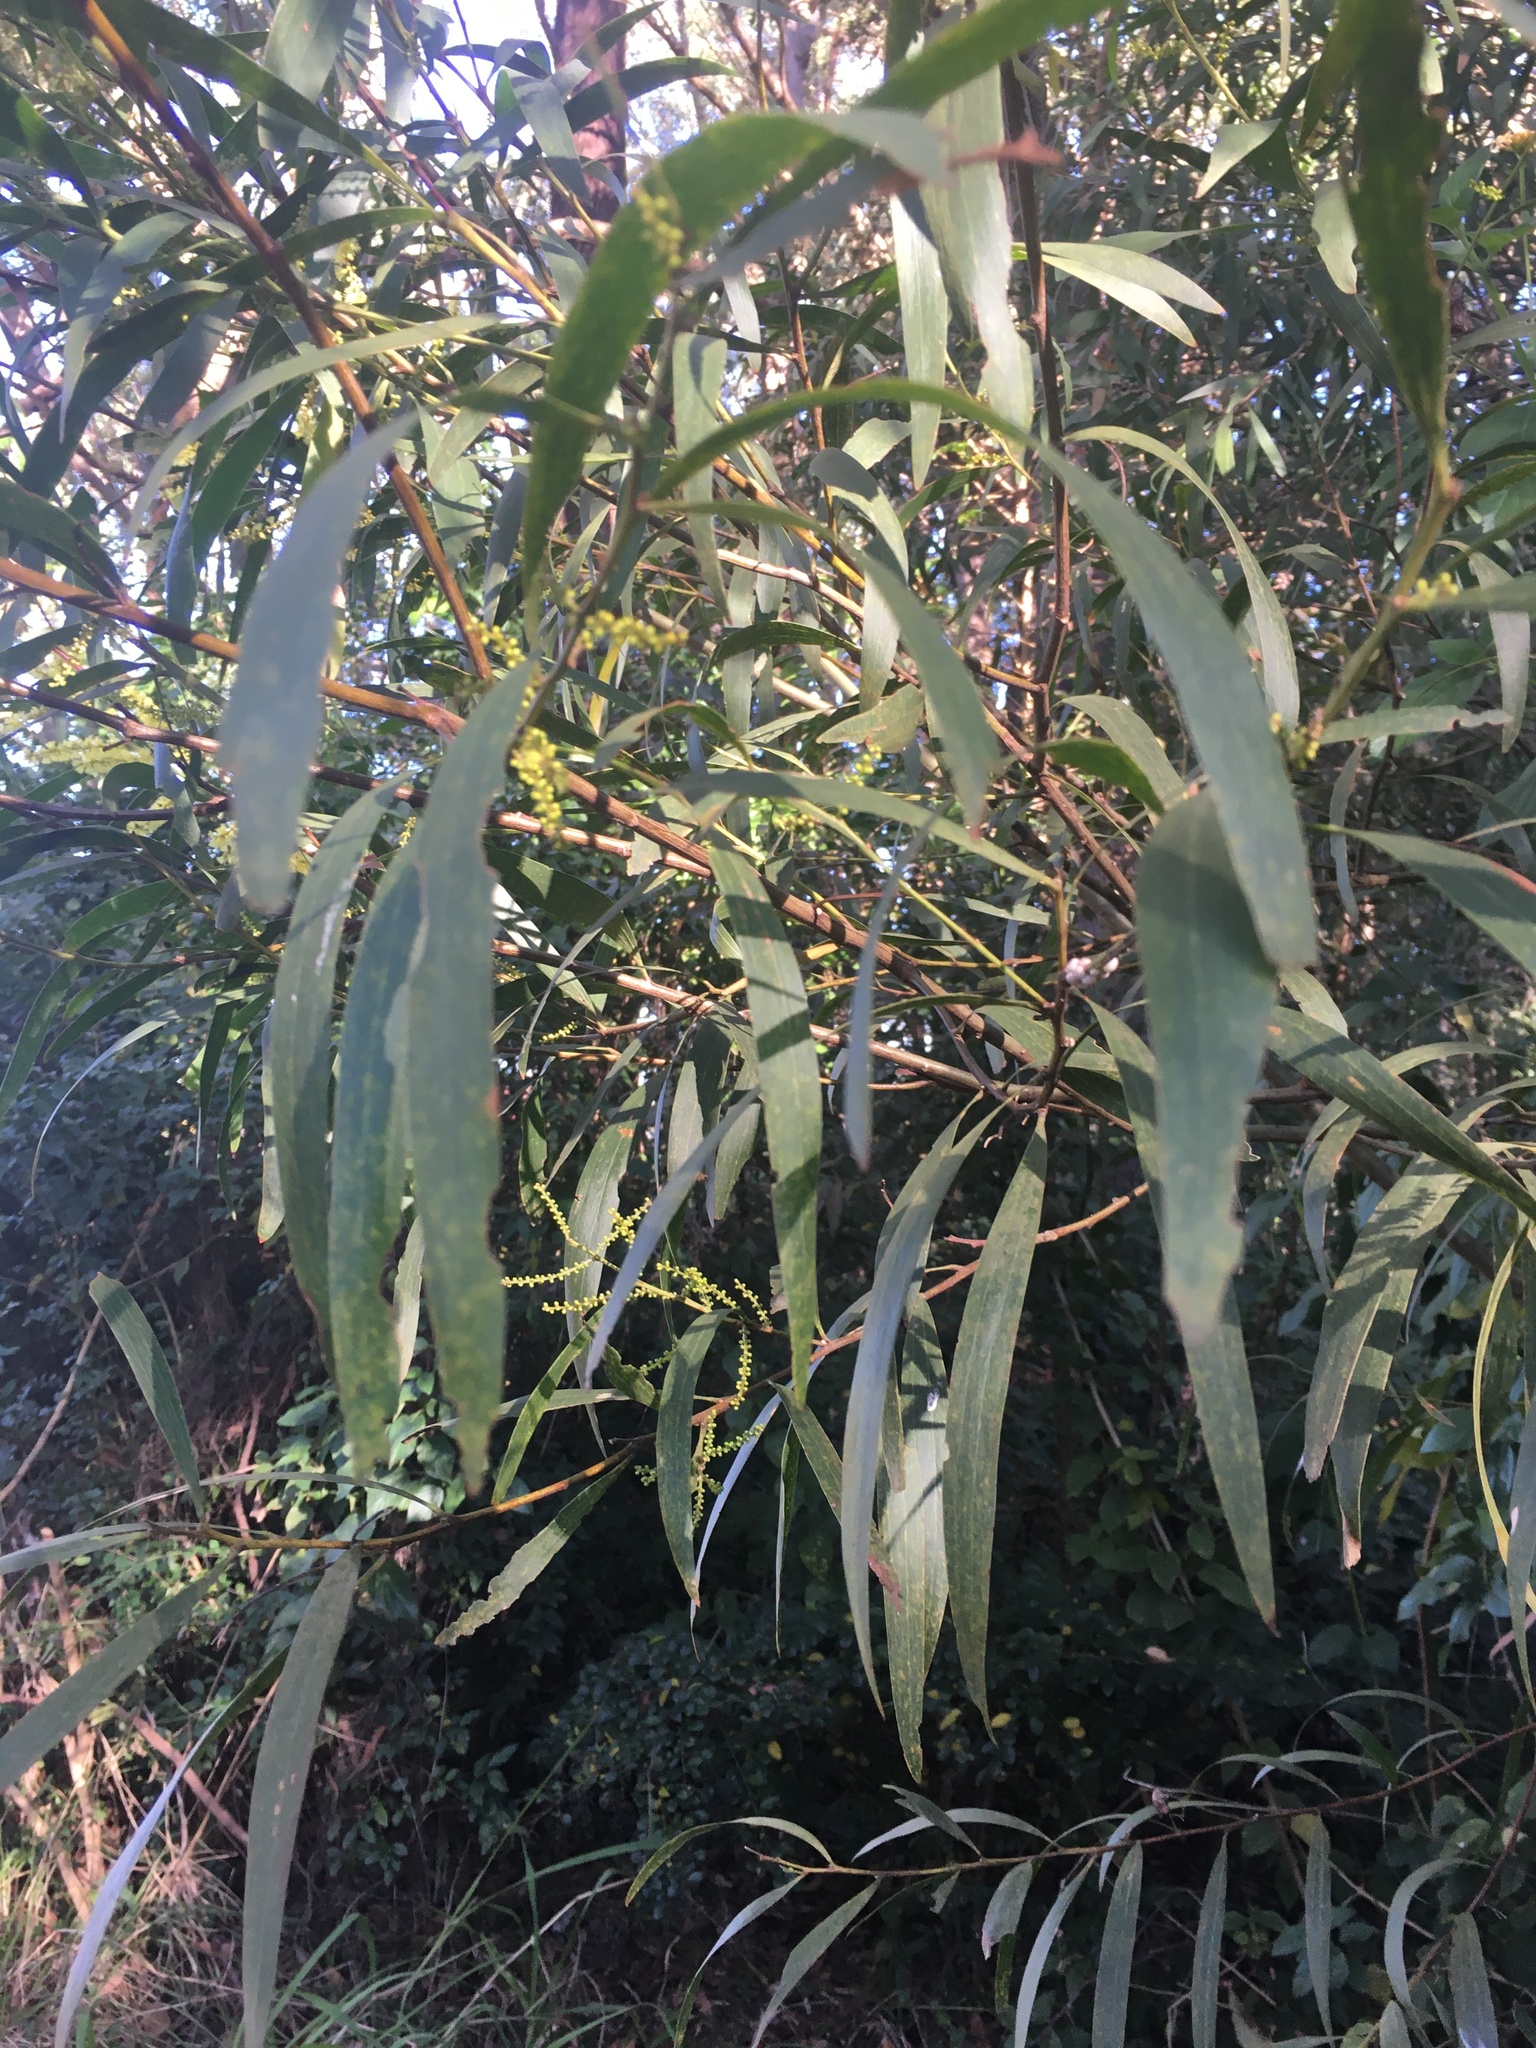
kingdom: Plantae
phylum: Tracheophyta
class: Magnoliopsida
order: Fabales
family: Fabaceae
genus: Acacia
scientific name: Acacia longifolia
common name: Sydney golden wattle
